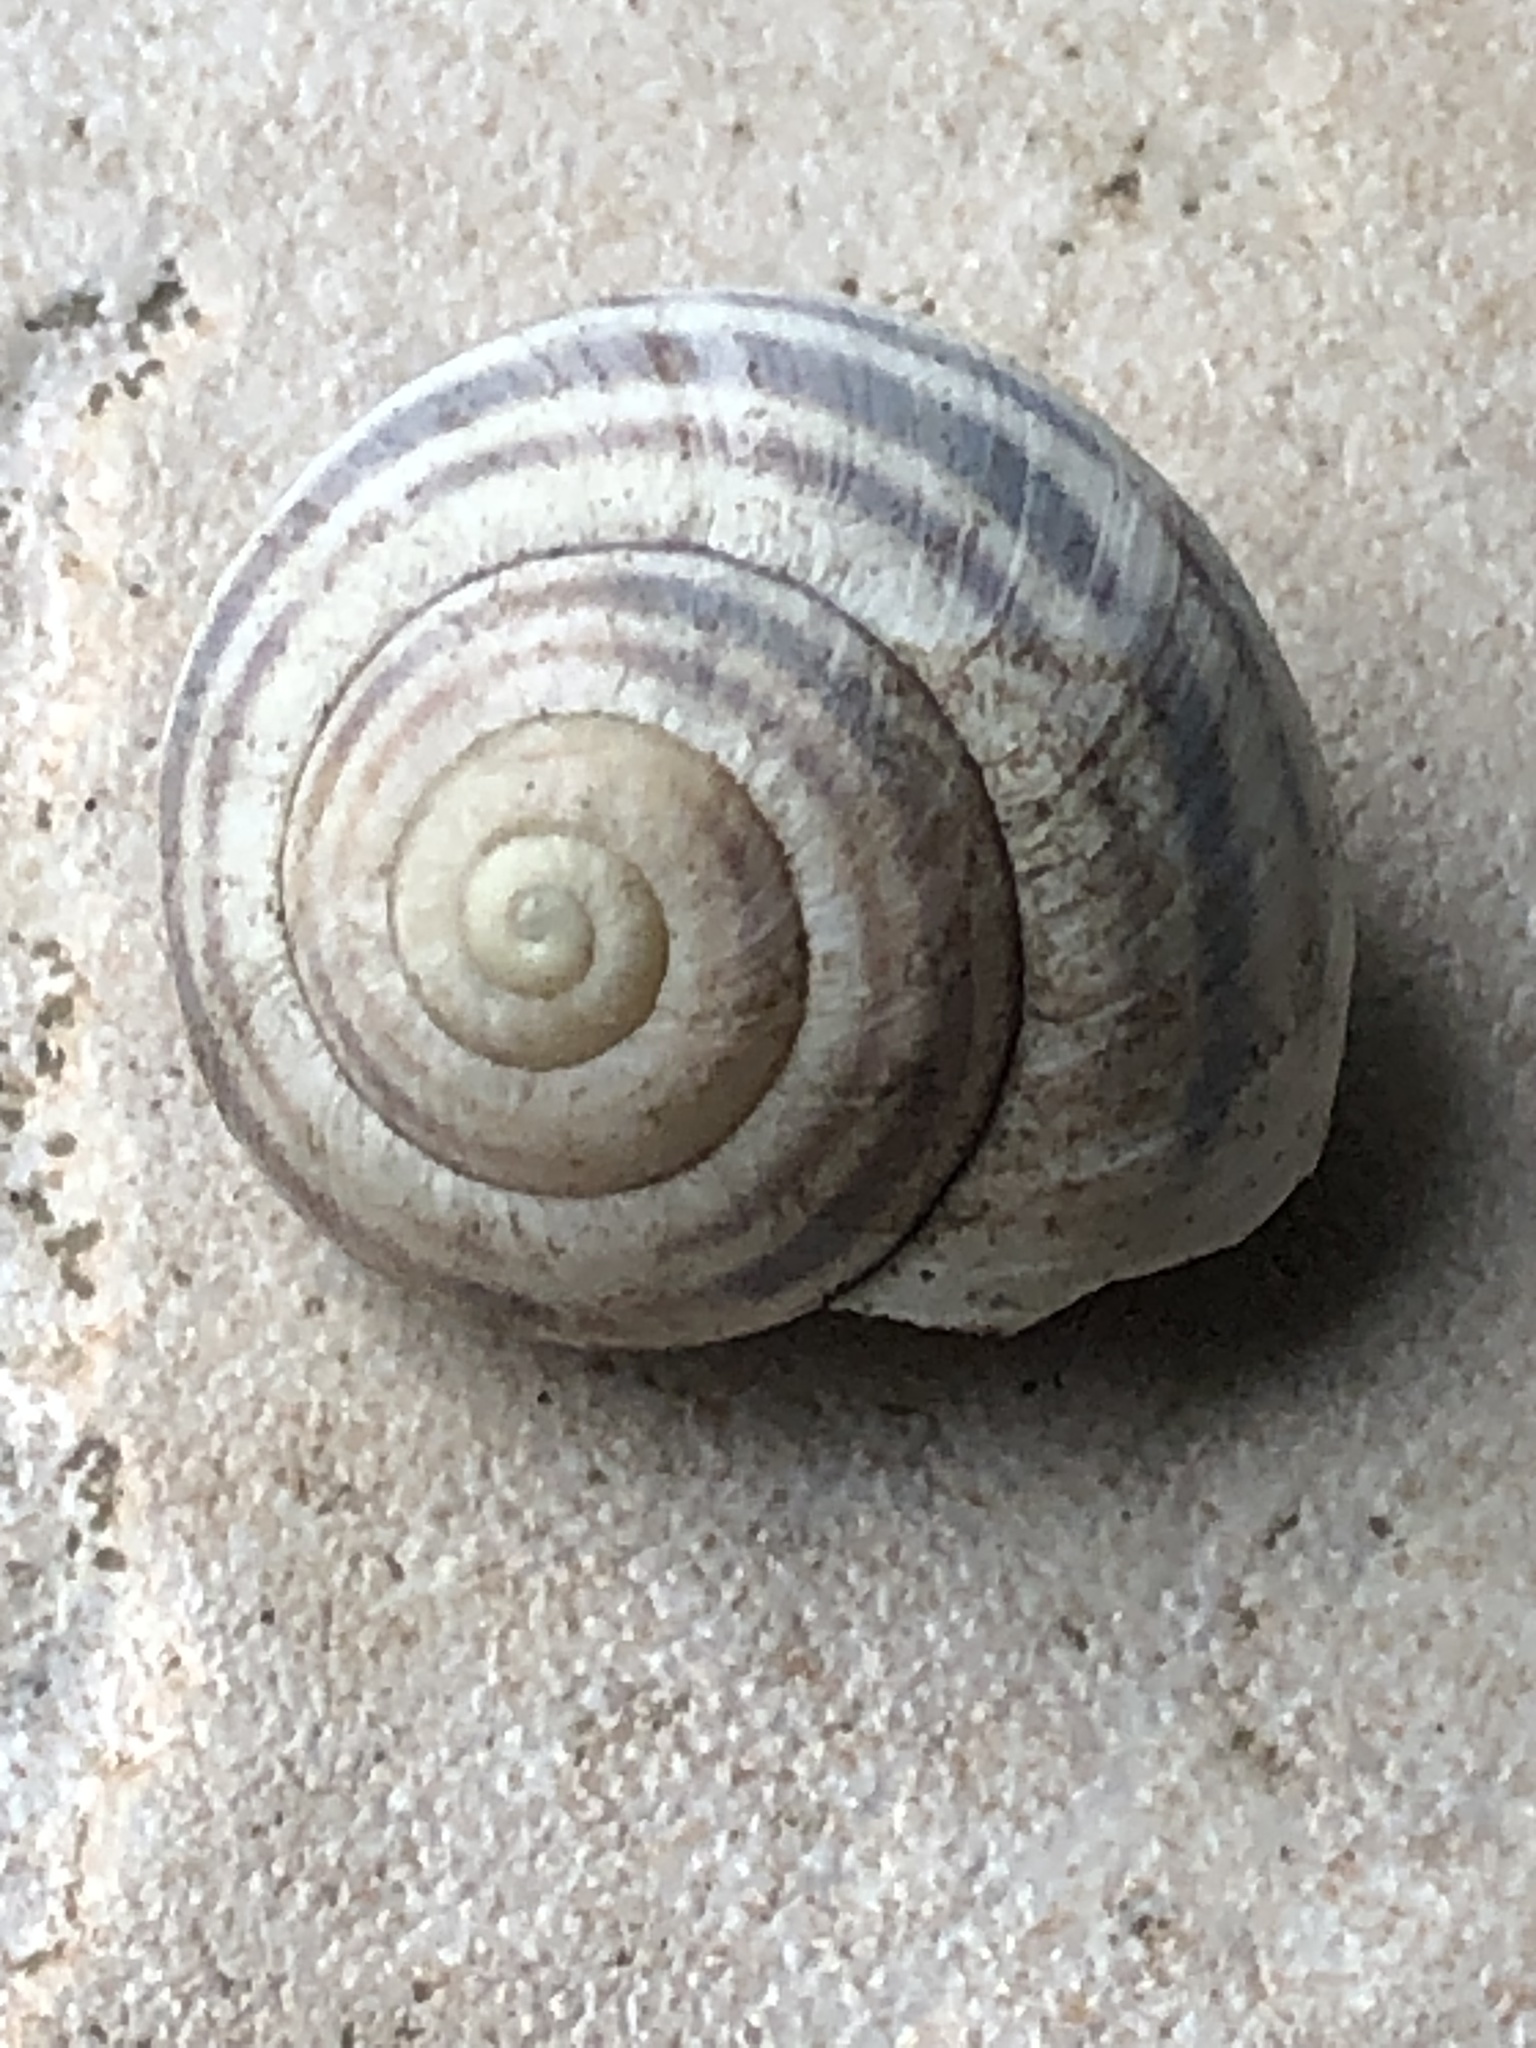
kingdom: Animalia
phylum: Mollusca
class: Gastropoda
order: Stylommatophora
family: Helicidae
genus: Cepaea
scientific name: Cepaea nemoralis
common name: Grovesnail
